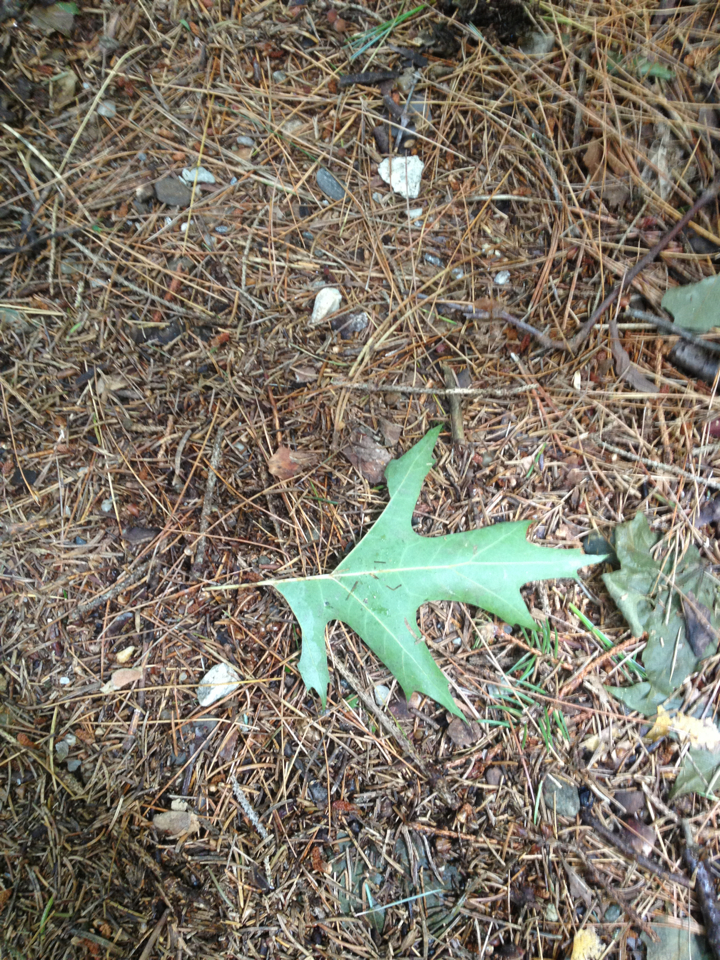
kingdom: Plantae
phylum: Tracheophyta
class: Magnoliopsida
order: Fagales
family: Fagaceae
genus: Quercus
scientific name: Quercus rubra
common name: Red oak
